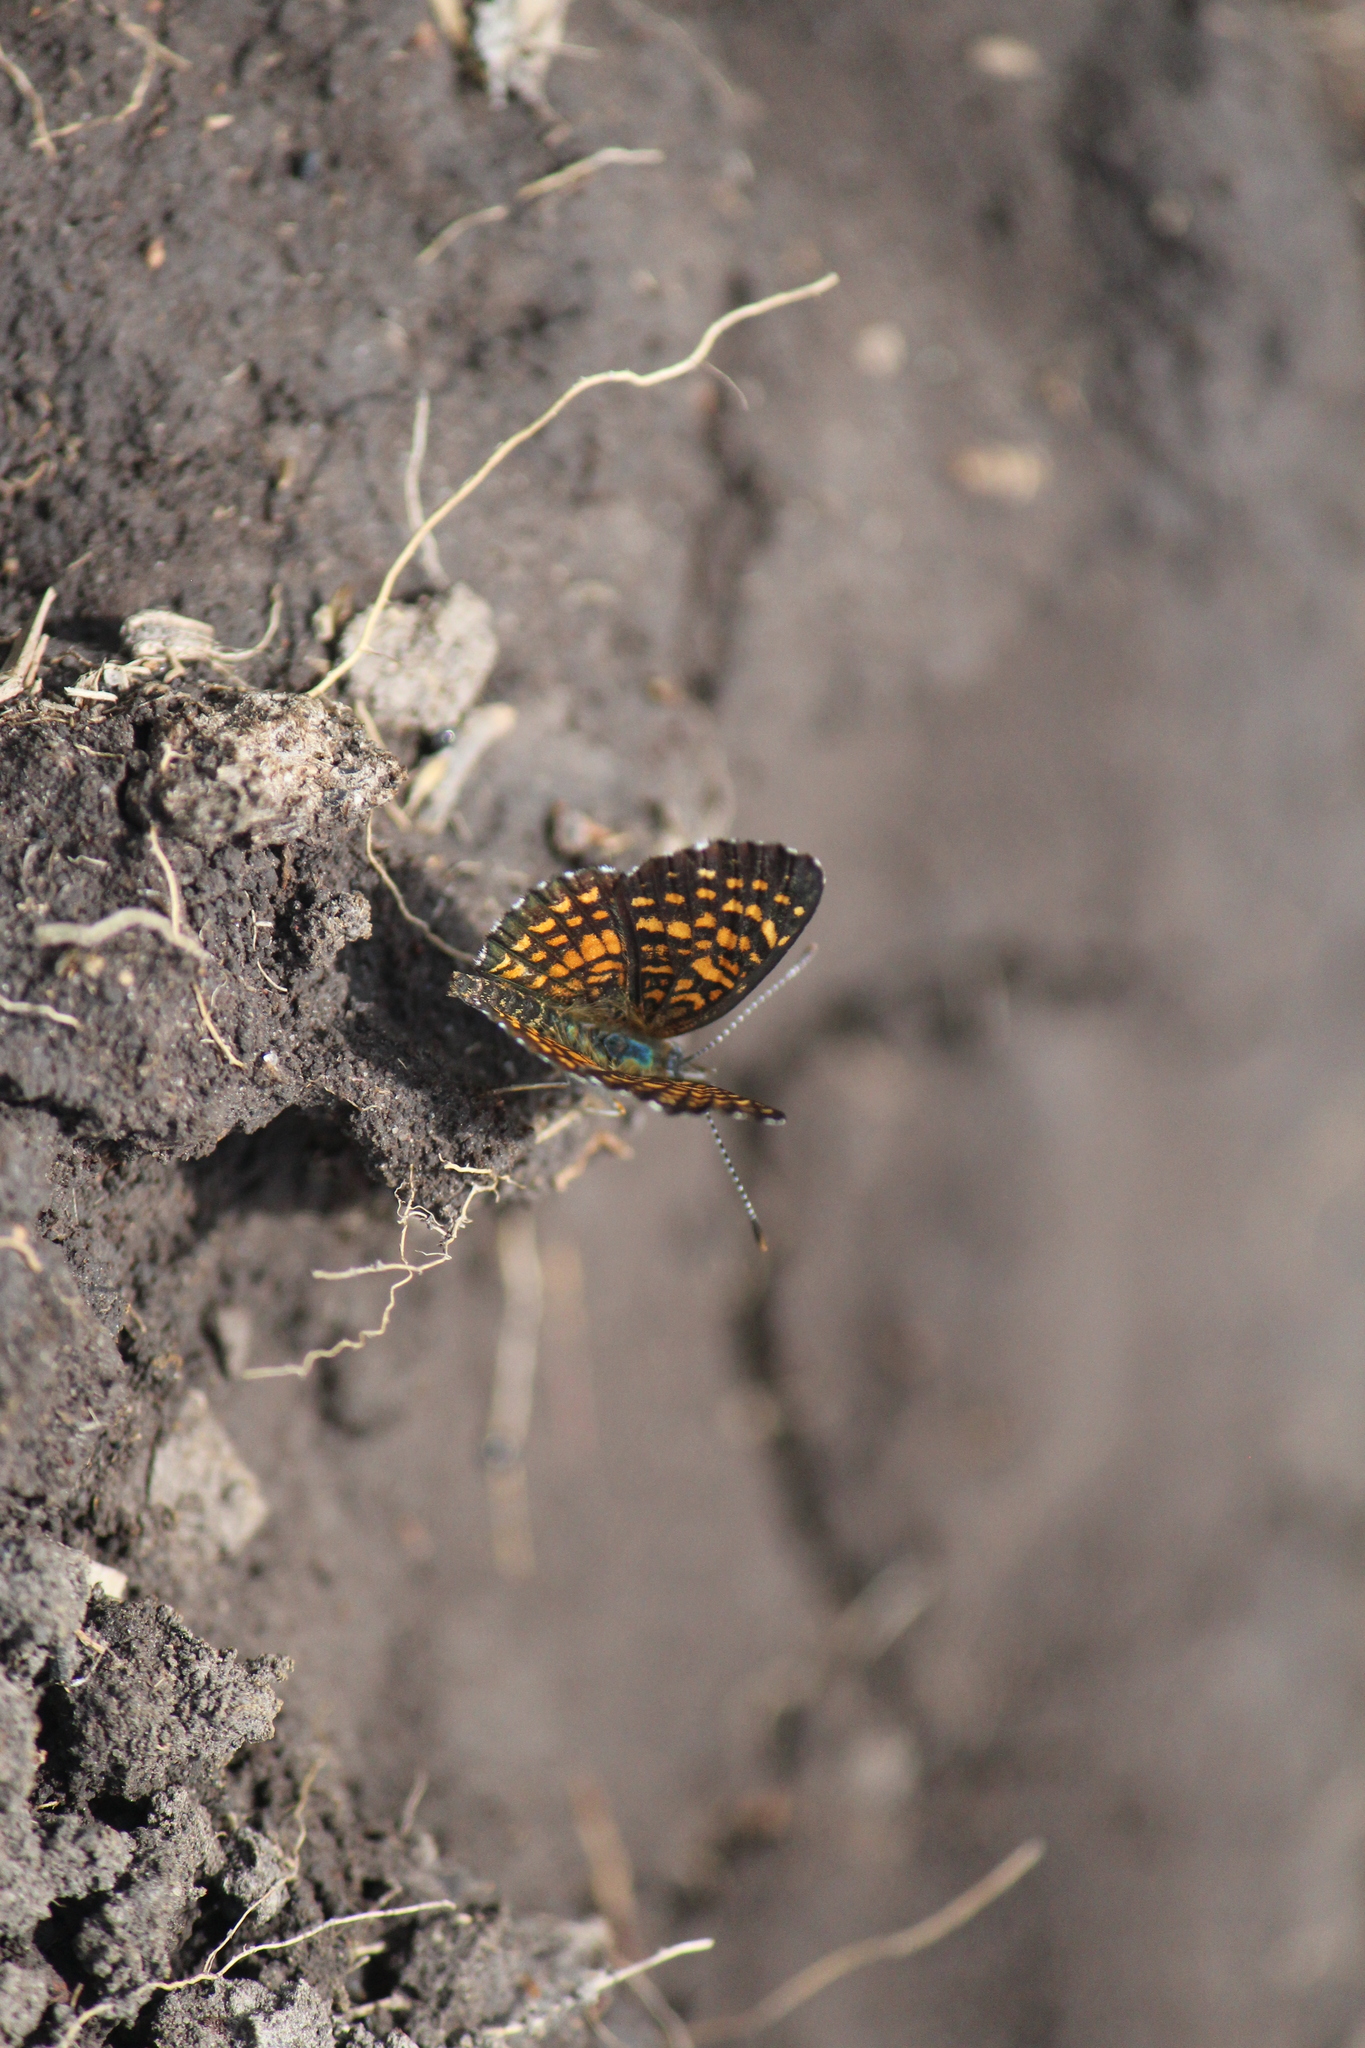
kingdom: Animalia
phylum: Arthropoda
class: Insecta
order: Lepidoptera
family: Nymphalidae
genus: Texola
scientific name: Texola elada
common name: Elada checkerspot
